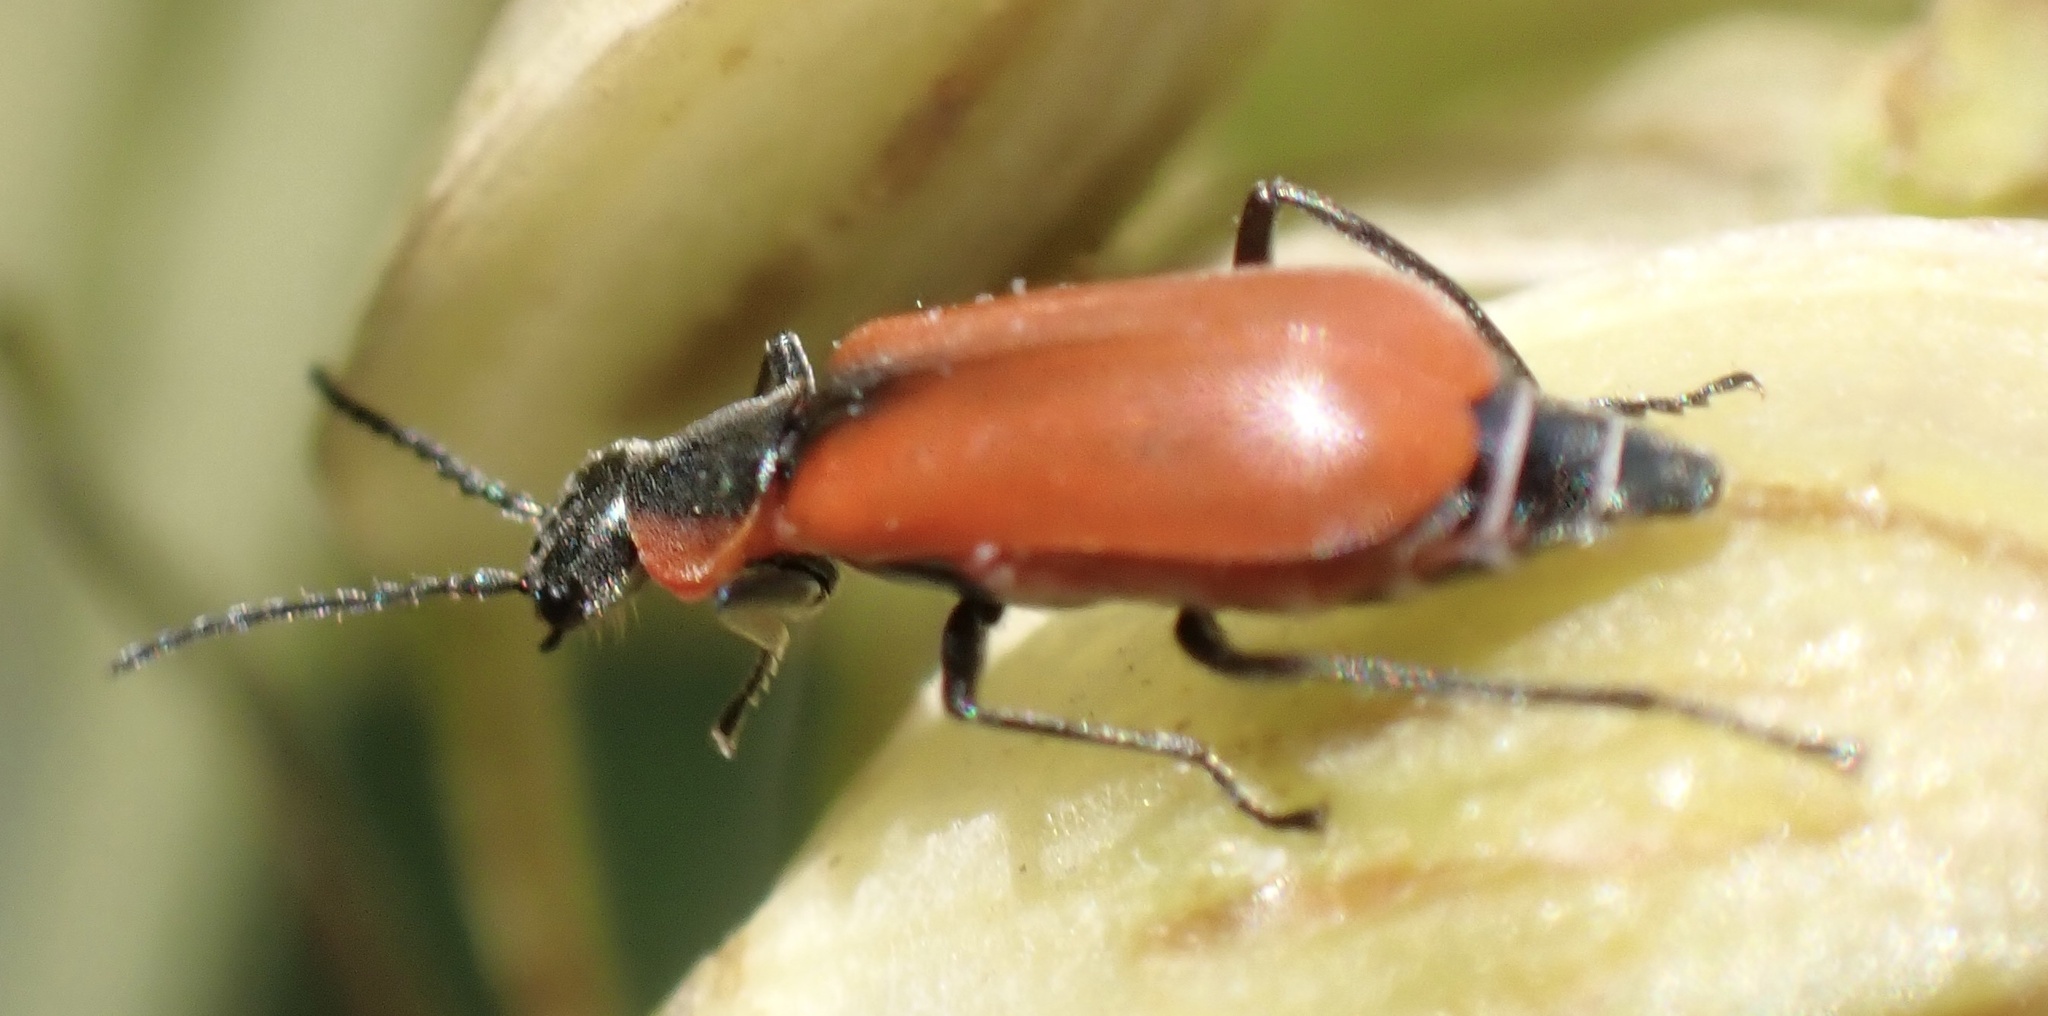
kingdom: Animalia
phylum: Arthropoda
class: Insecta
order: Coleoptera
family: Melyridae
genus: Anthocomus
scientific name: Anthocomus rufus
